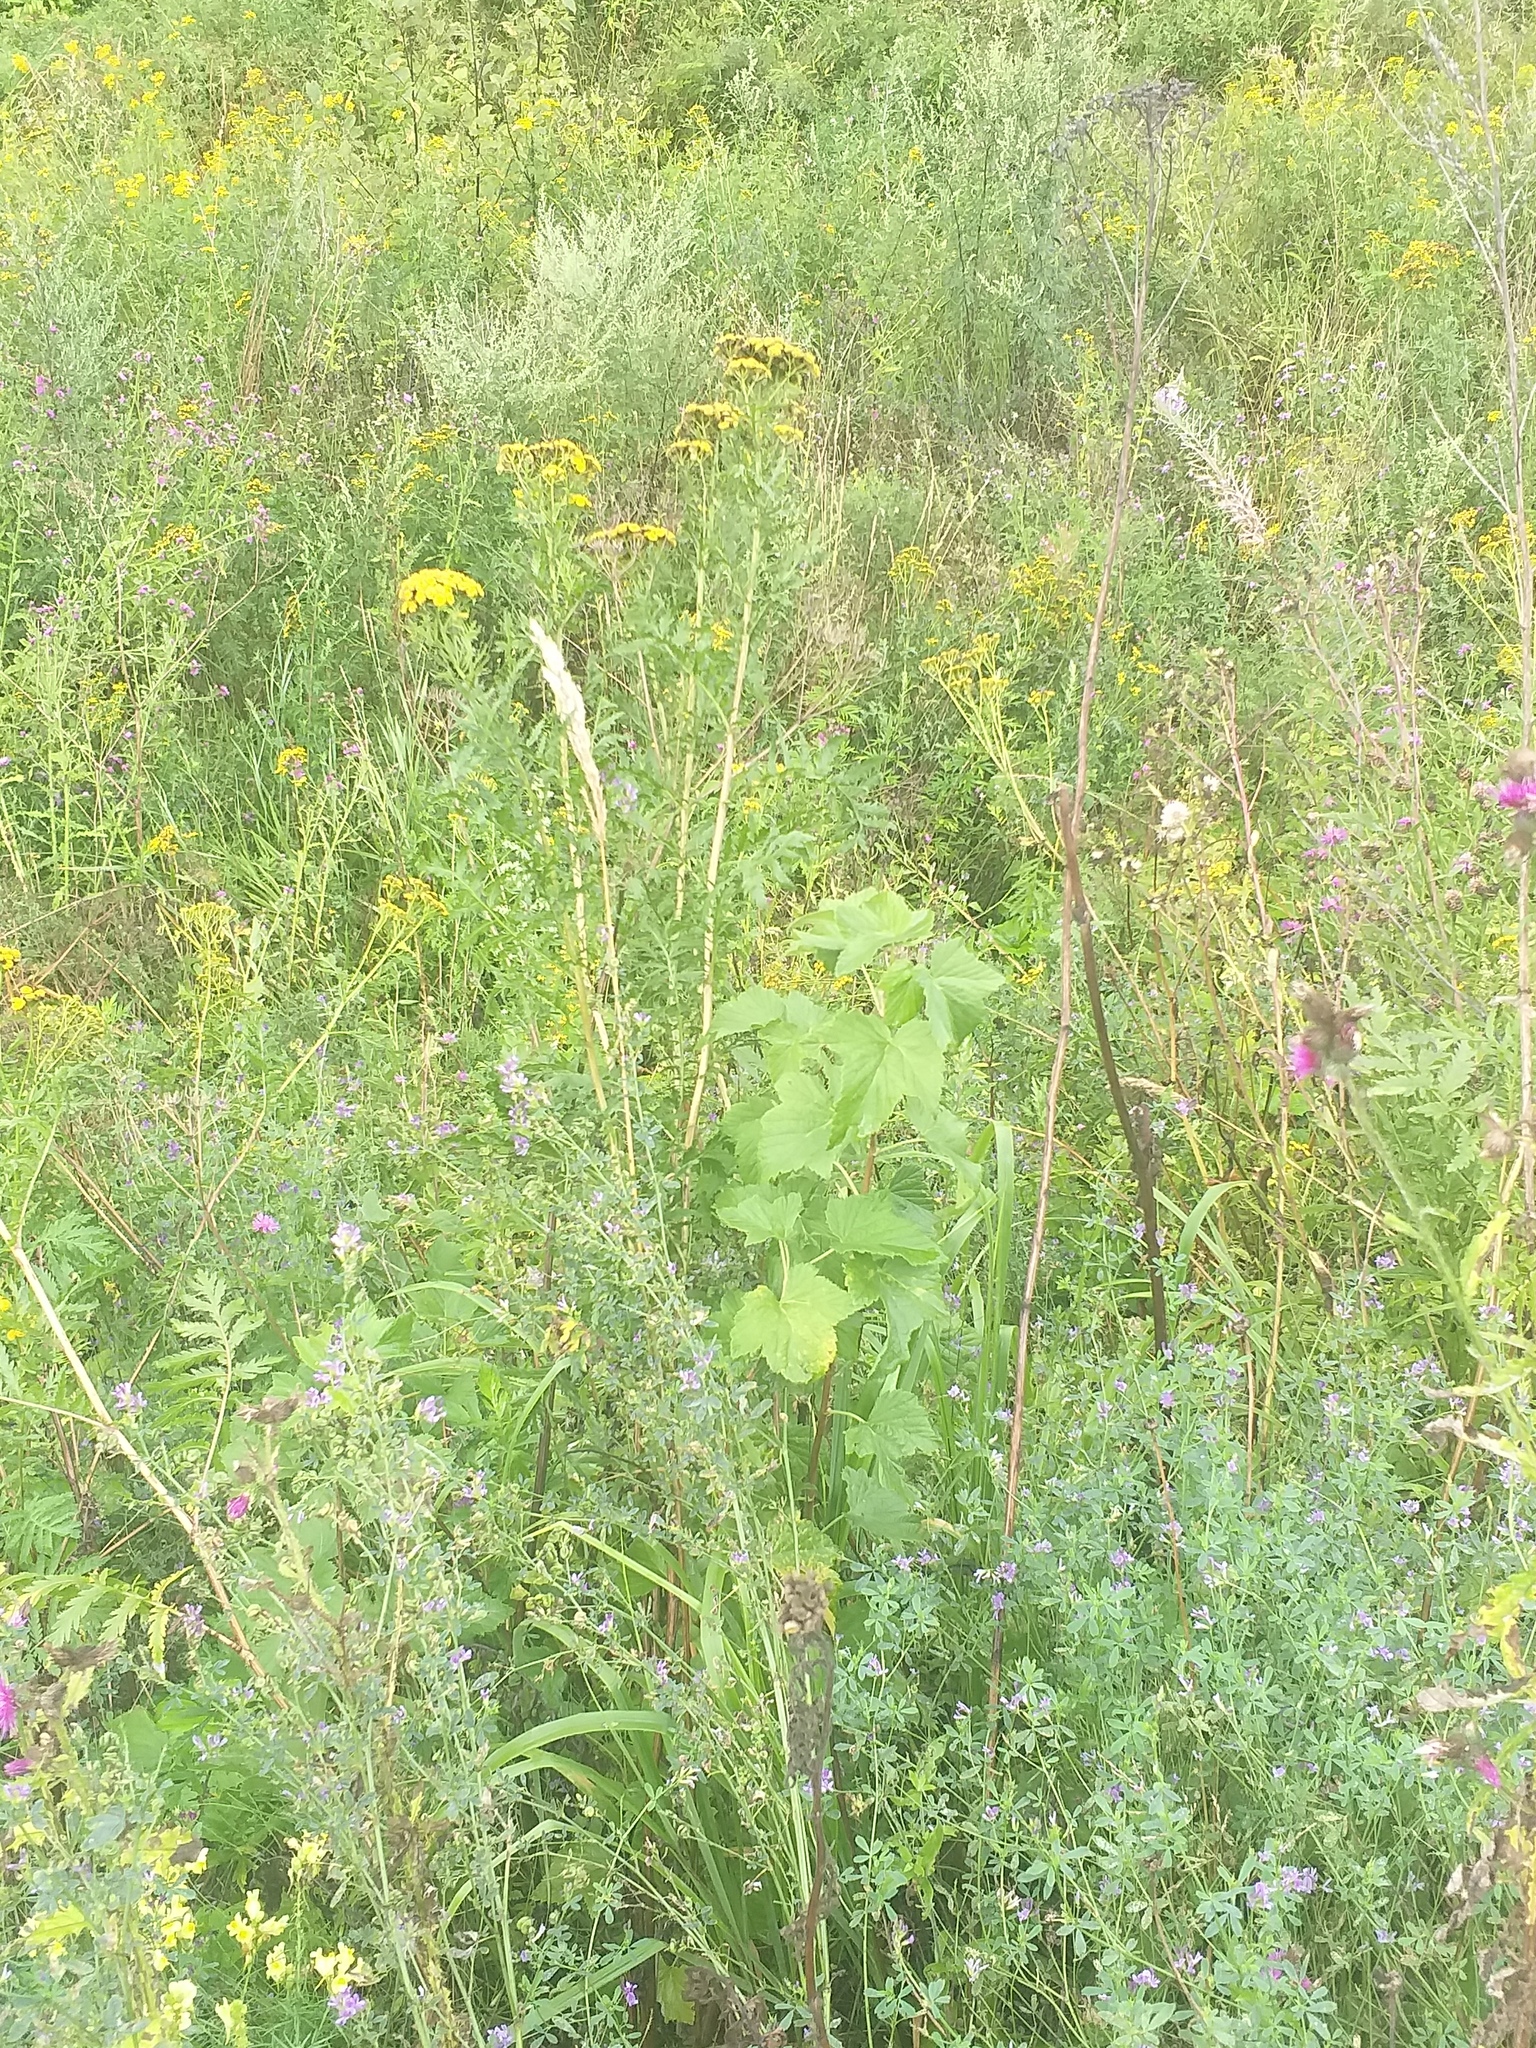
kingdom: Plantae
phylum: Tracheophyta
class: Magnoliopsida
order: Saxifragales
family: Grossulariaceae
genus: Ribes
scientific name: Ribes nigrum
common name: Black currant
